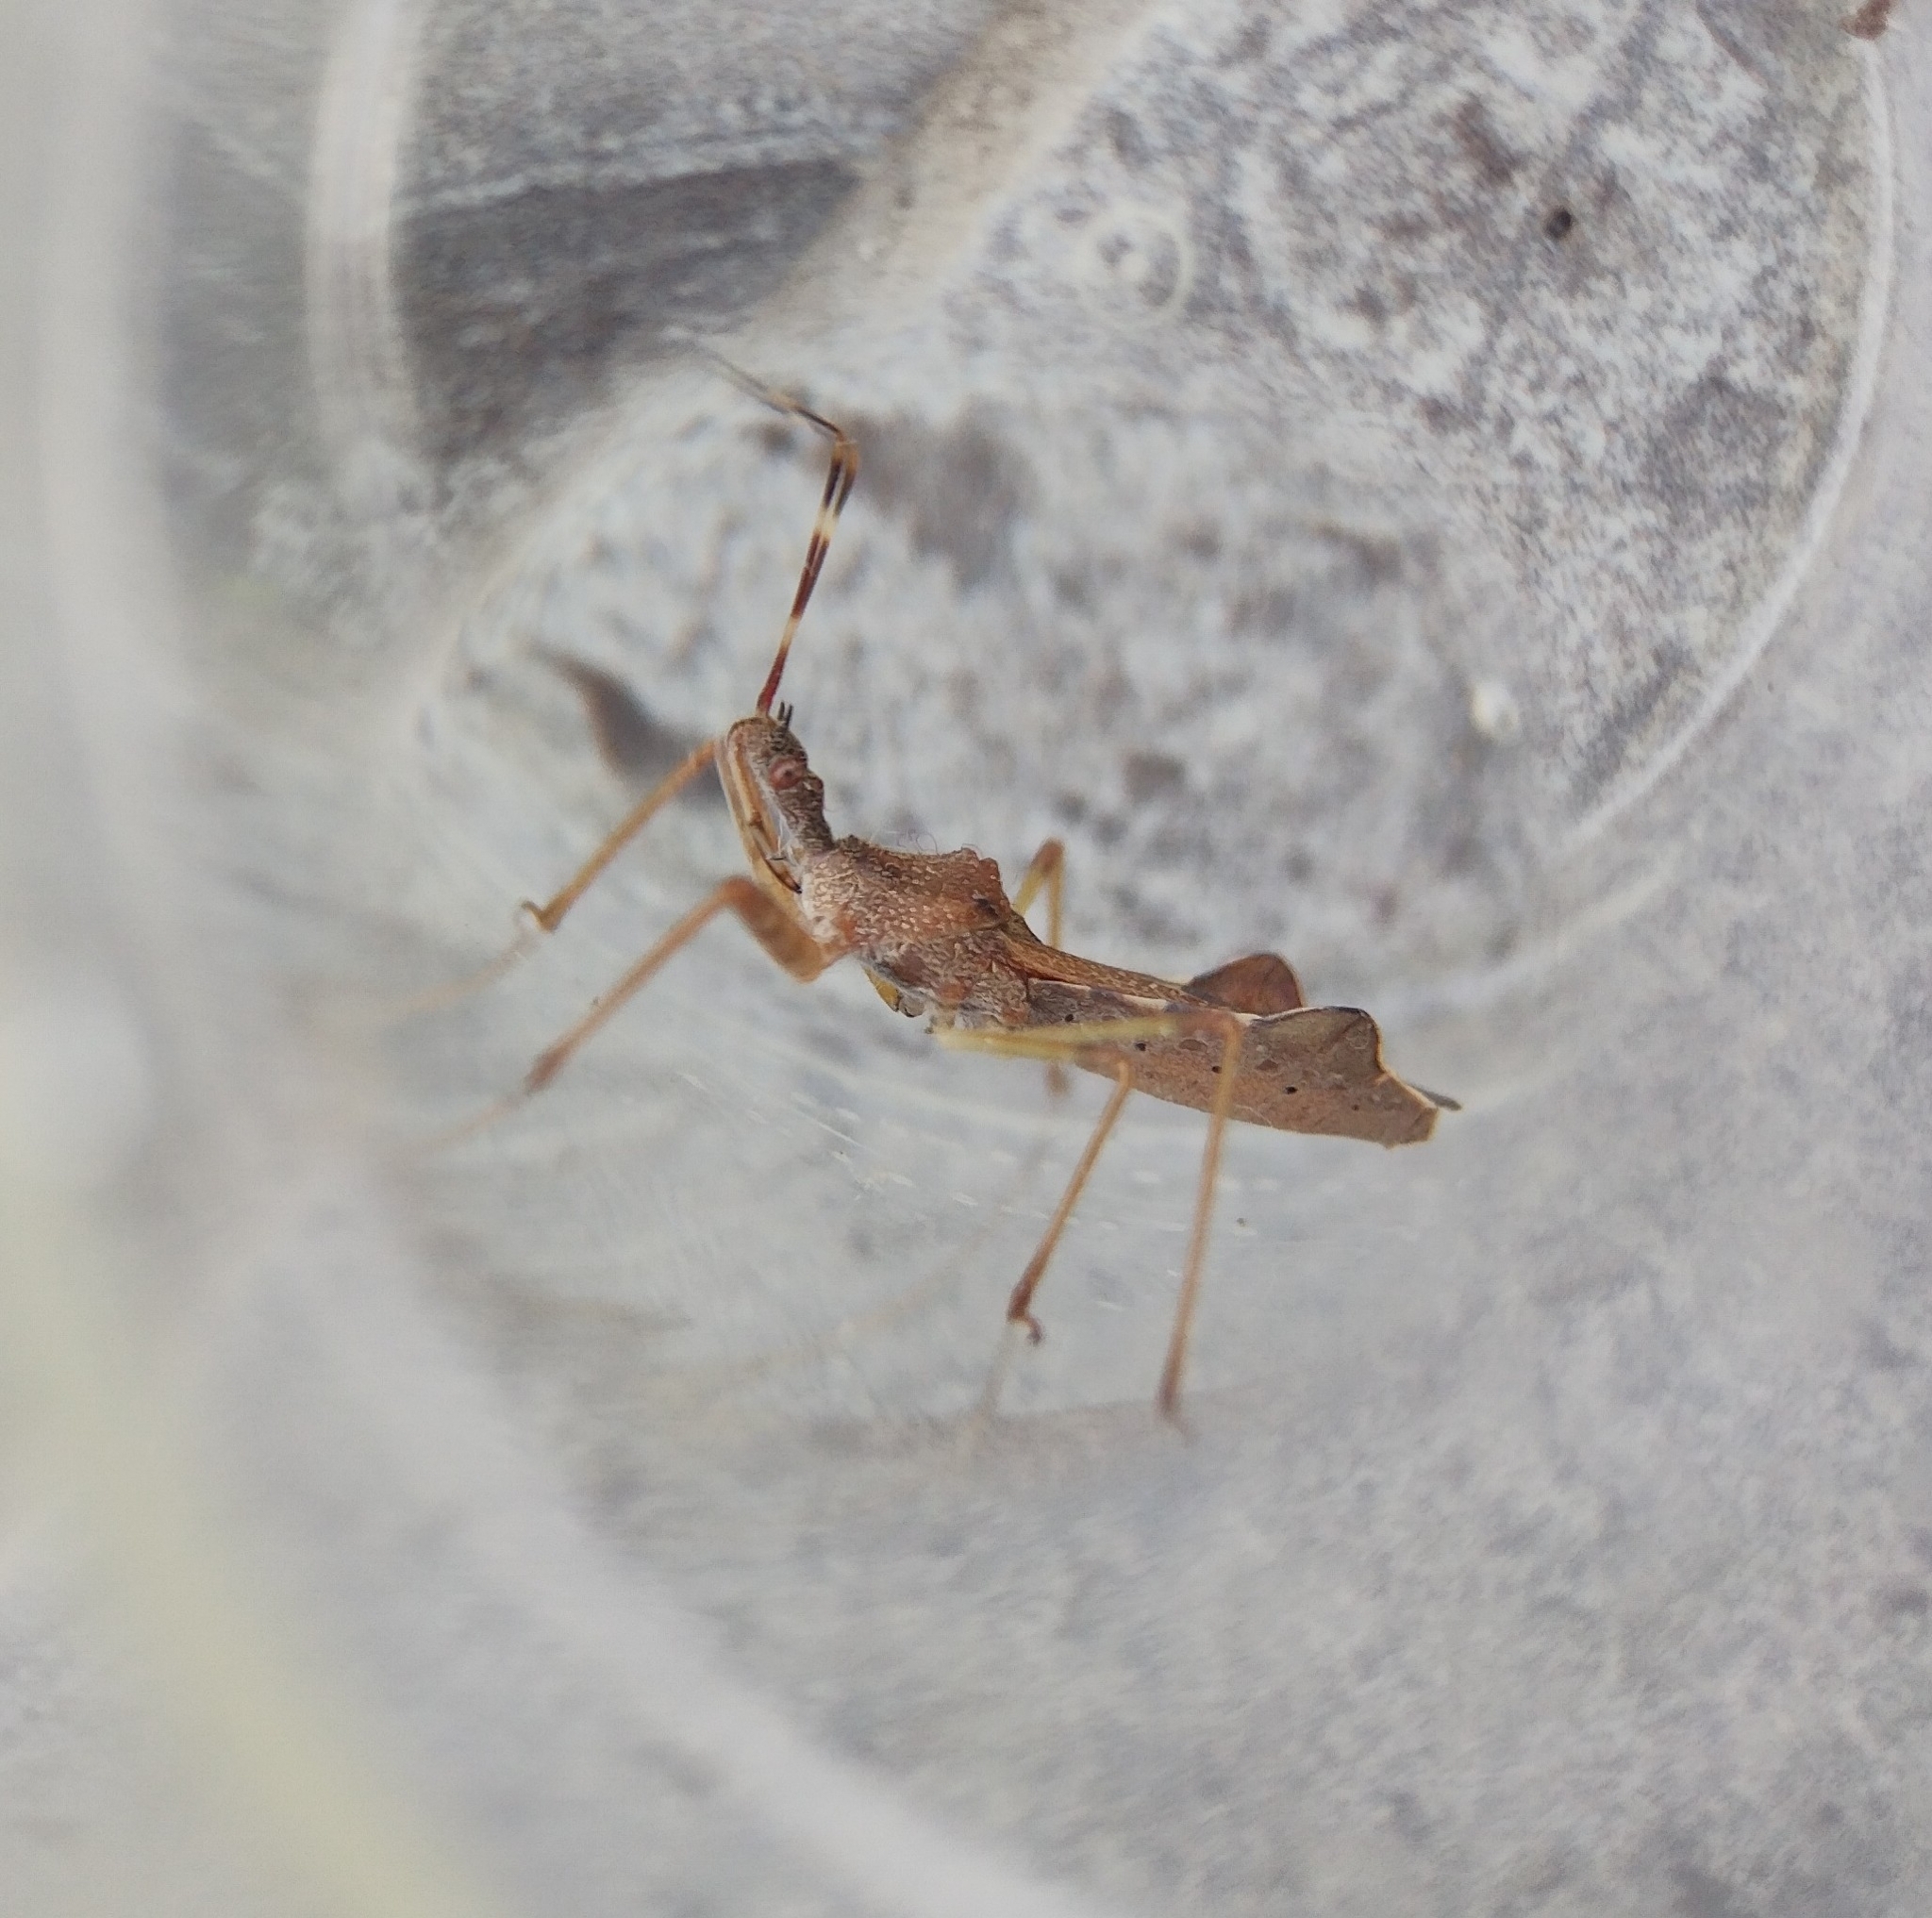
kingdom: Animalia
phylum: Arthropoda
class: Insecta
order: Hemiptera
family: Reduviidae
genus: Nagusta
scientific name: Nagusta goedelii
